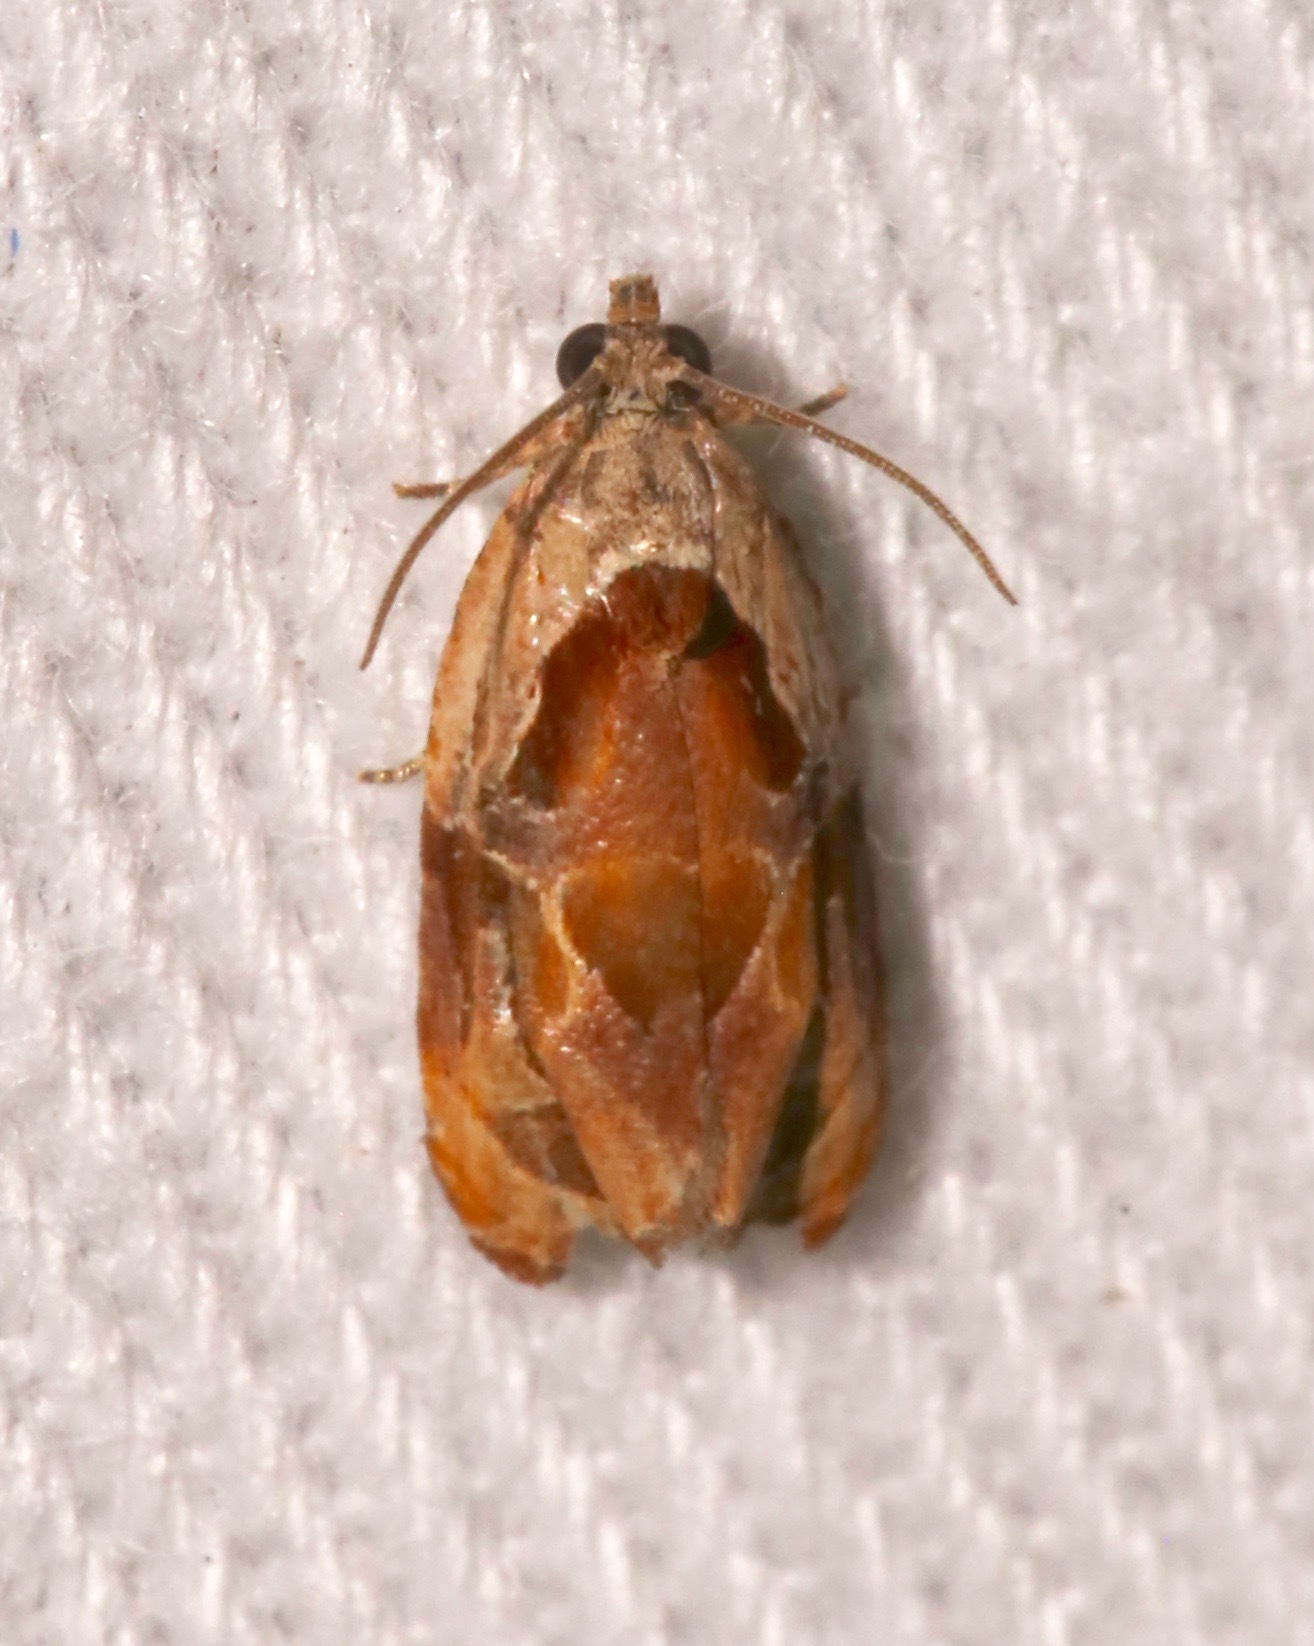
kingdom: Animalia
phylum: Arthropoda
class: Insecta
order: Lepidoptera
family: Tortricidae
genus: Zomaria
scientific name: Zomaria interruptolineana
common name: Broken-lined zomaria moth
